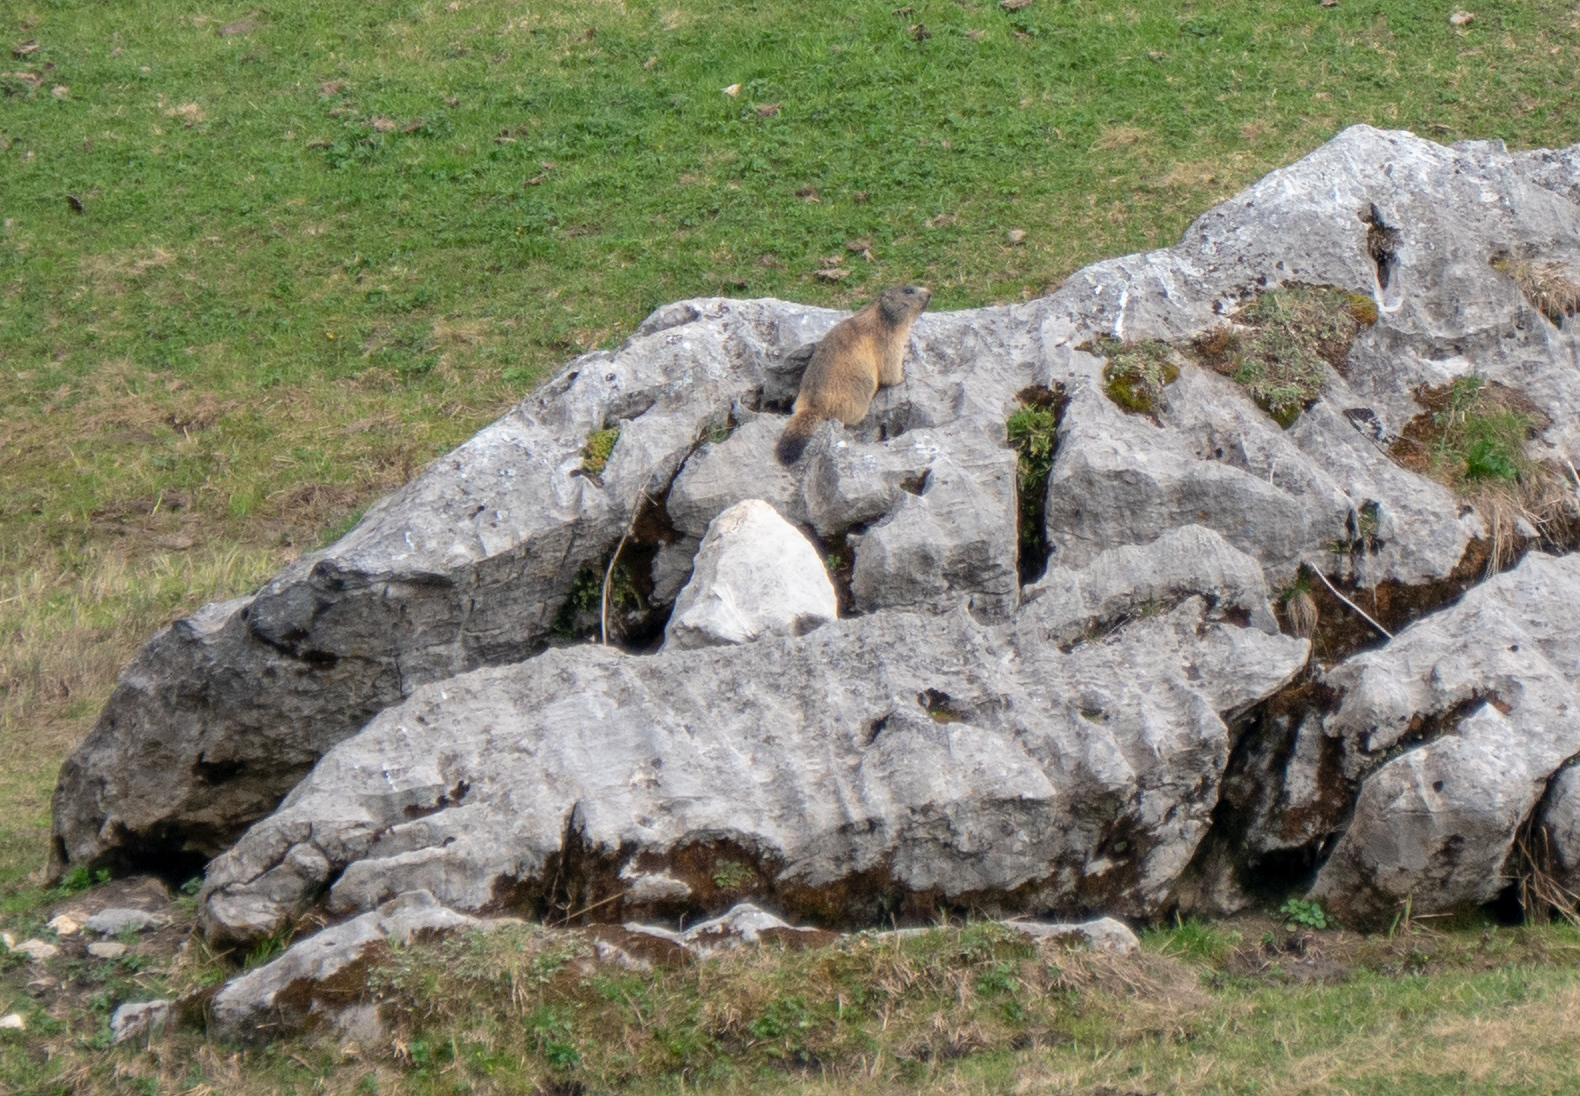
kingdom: Animalia
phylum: Chordata
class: Mammalia
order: Rodentia
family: Sciuridae
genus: Marmota
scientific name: Marmota marmota
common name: Alpine marmot
